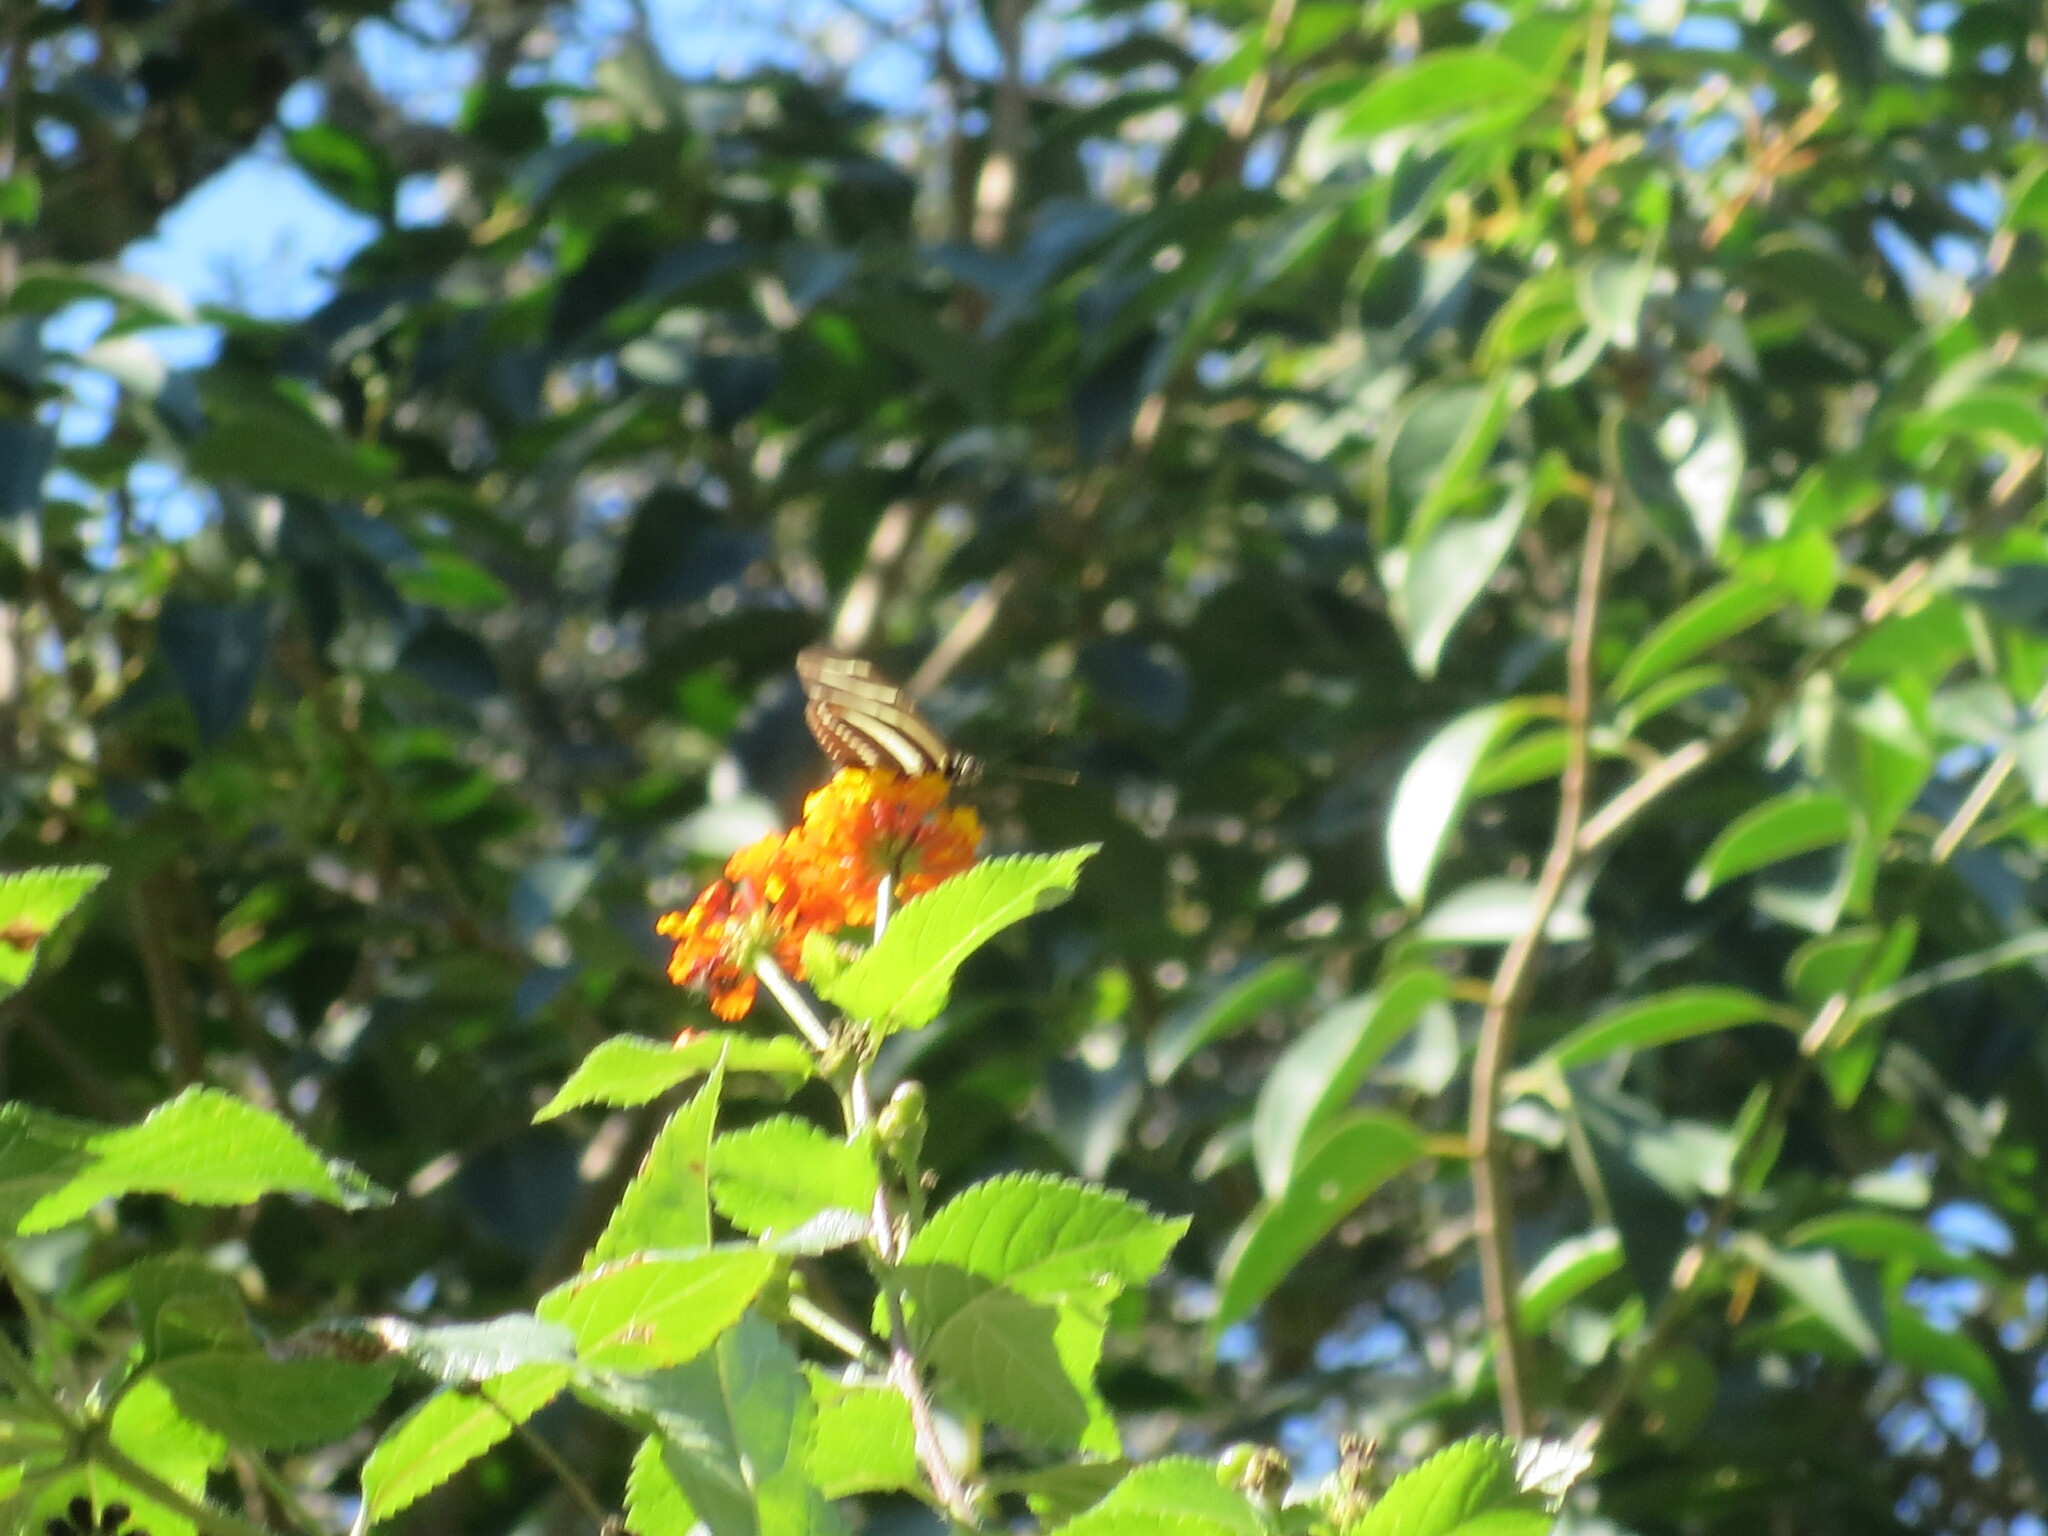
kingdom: Animalia
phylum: Arthropoda
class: Insecta
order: Lepidoptera
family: Nymphalidae
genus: Heliconius
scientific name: Heliconius charithonia
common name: Zebra long wing
